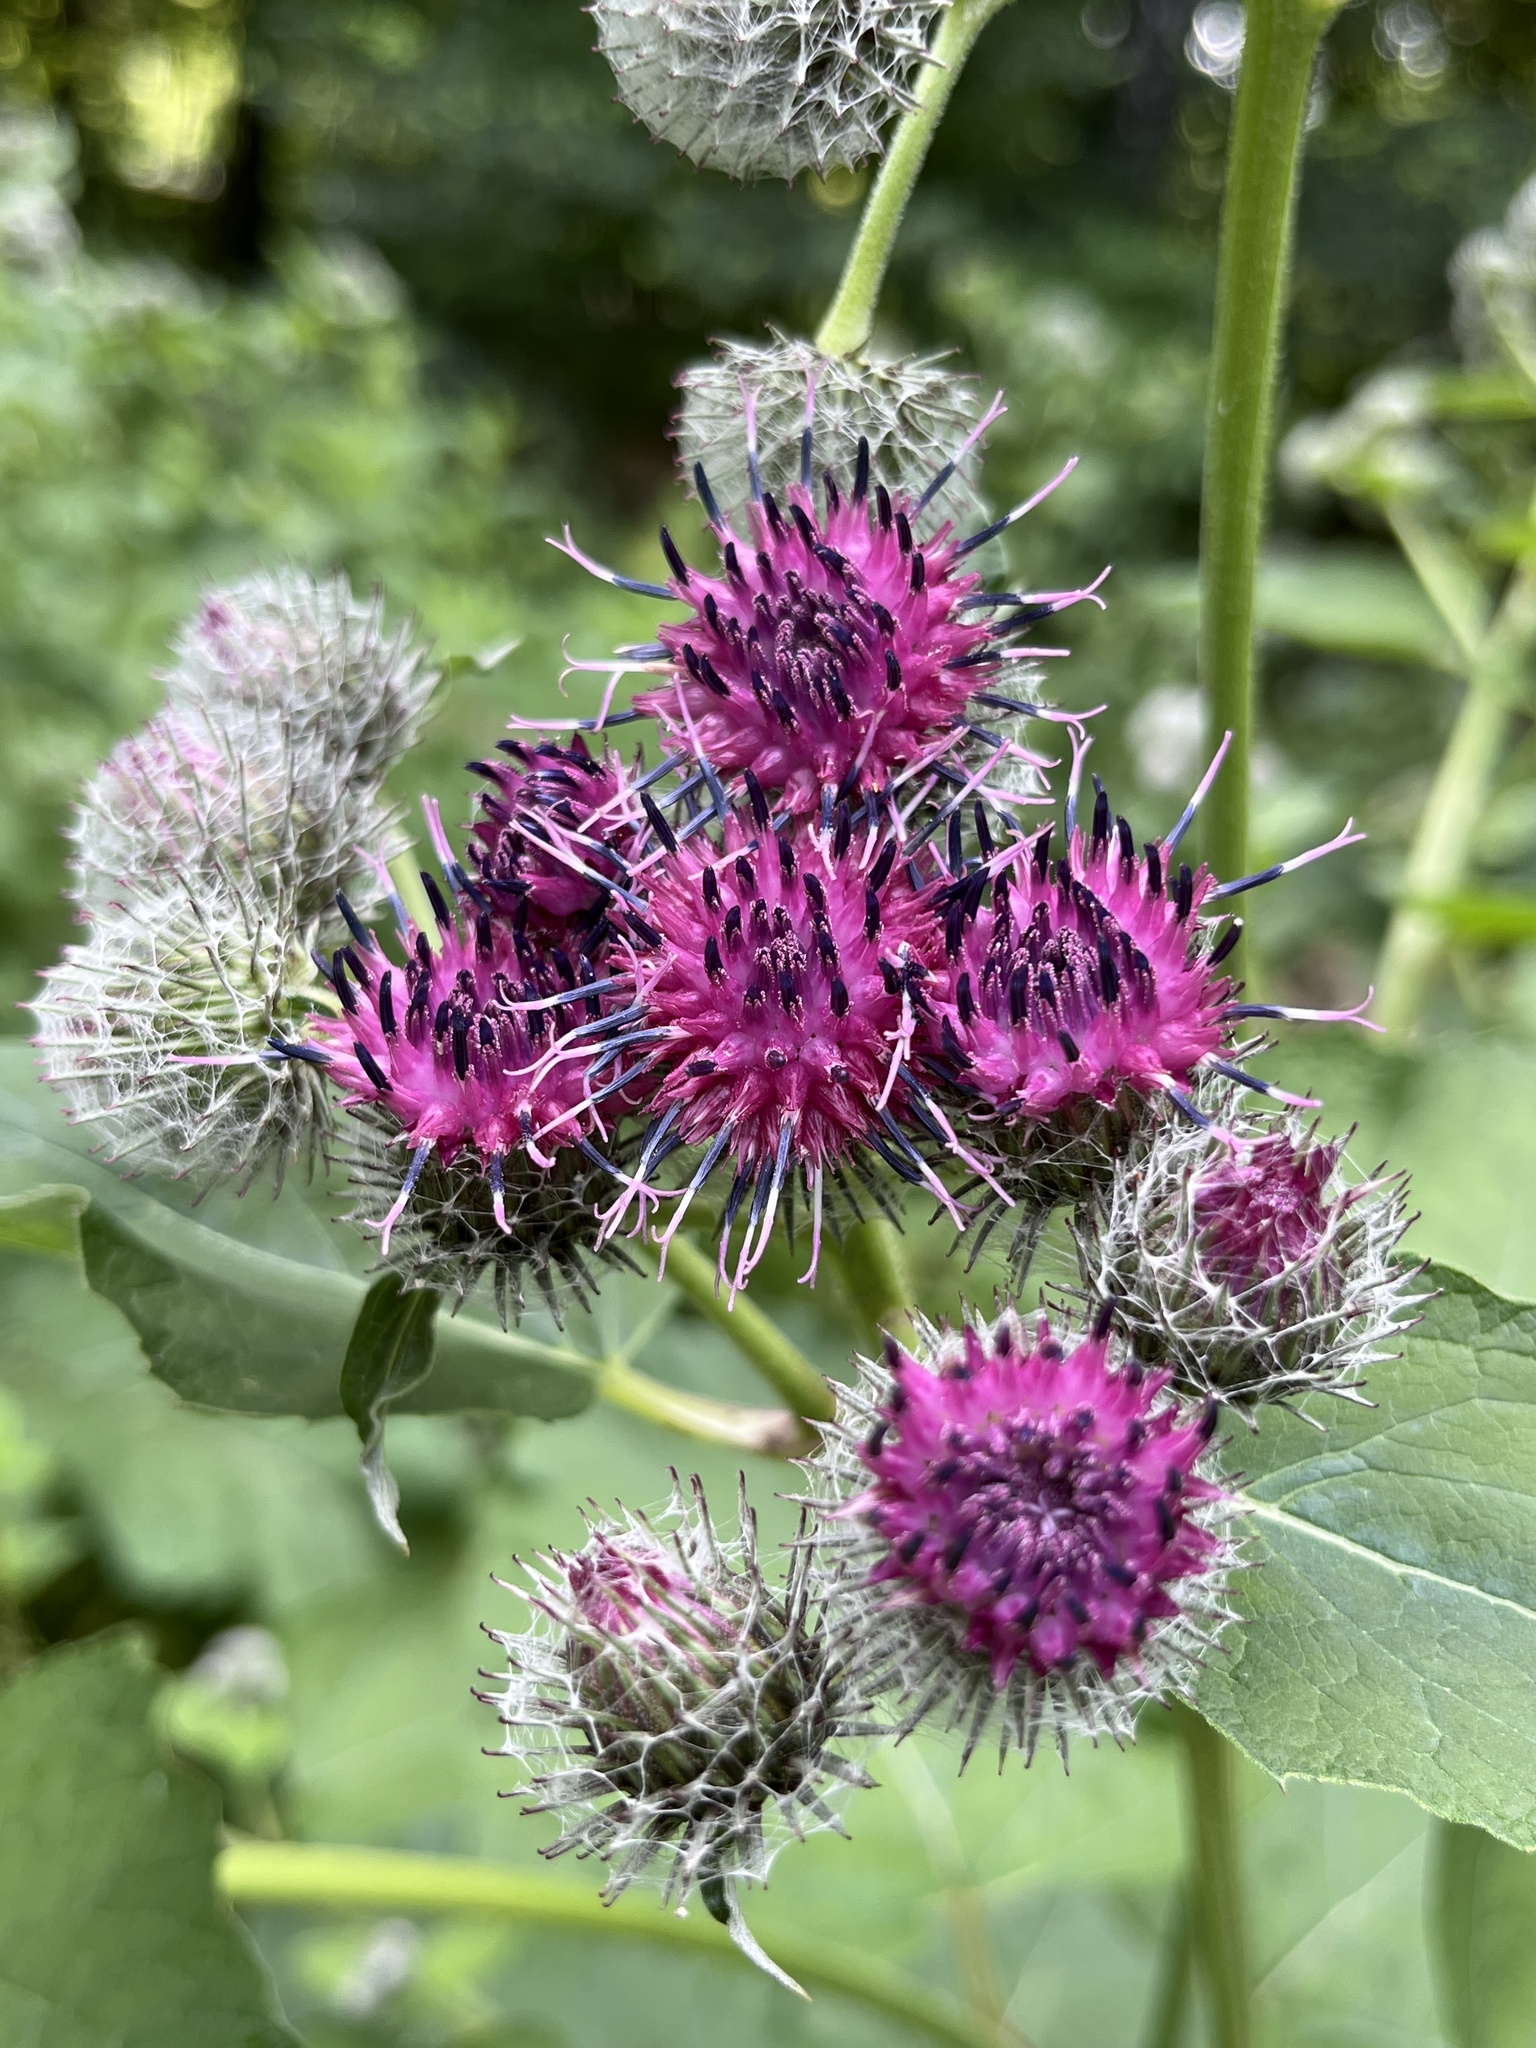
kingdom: Plantae
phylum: Tracheophyta
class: Magnoliopsida
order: Asterales
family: Asteraceae
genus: Arctium
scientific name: Arctium tomentosum
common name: Woolly burdock
